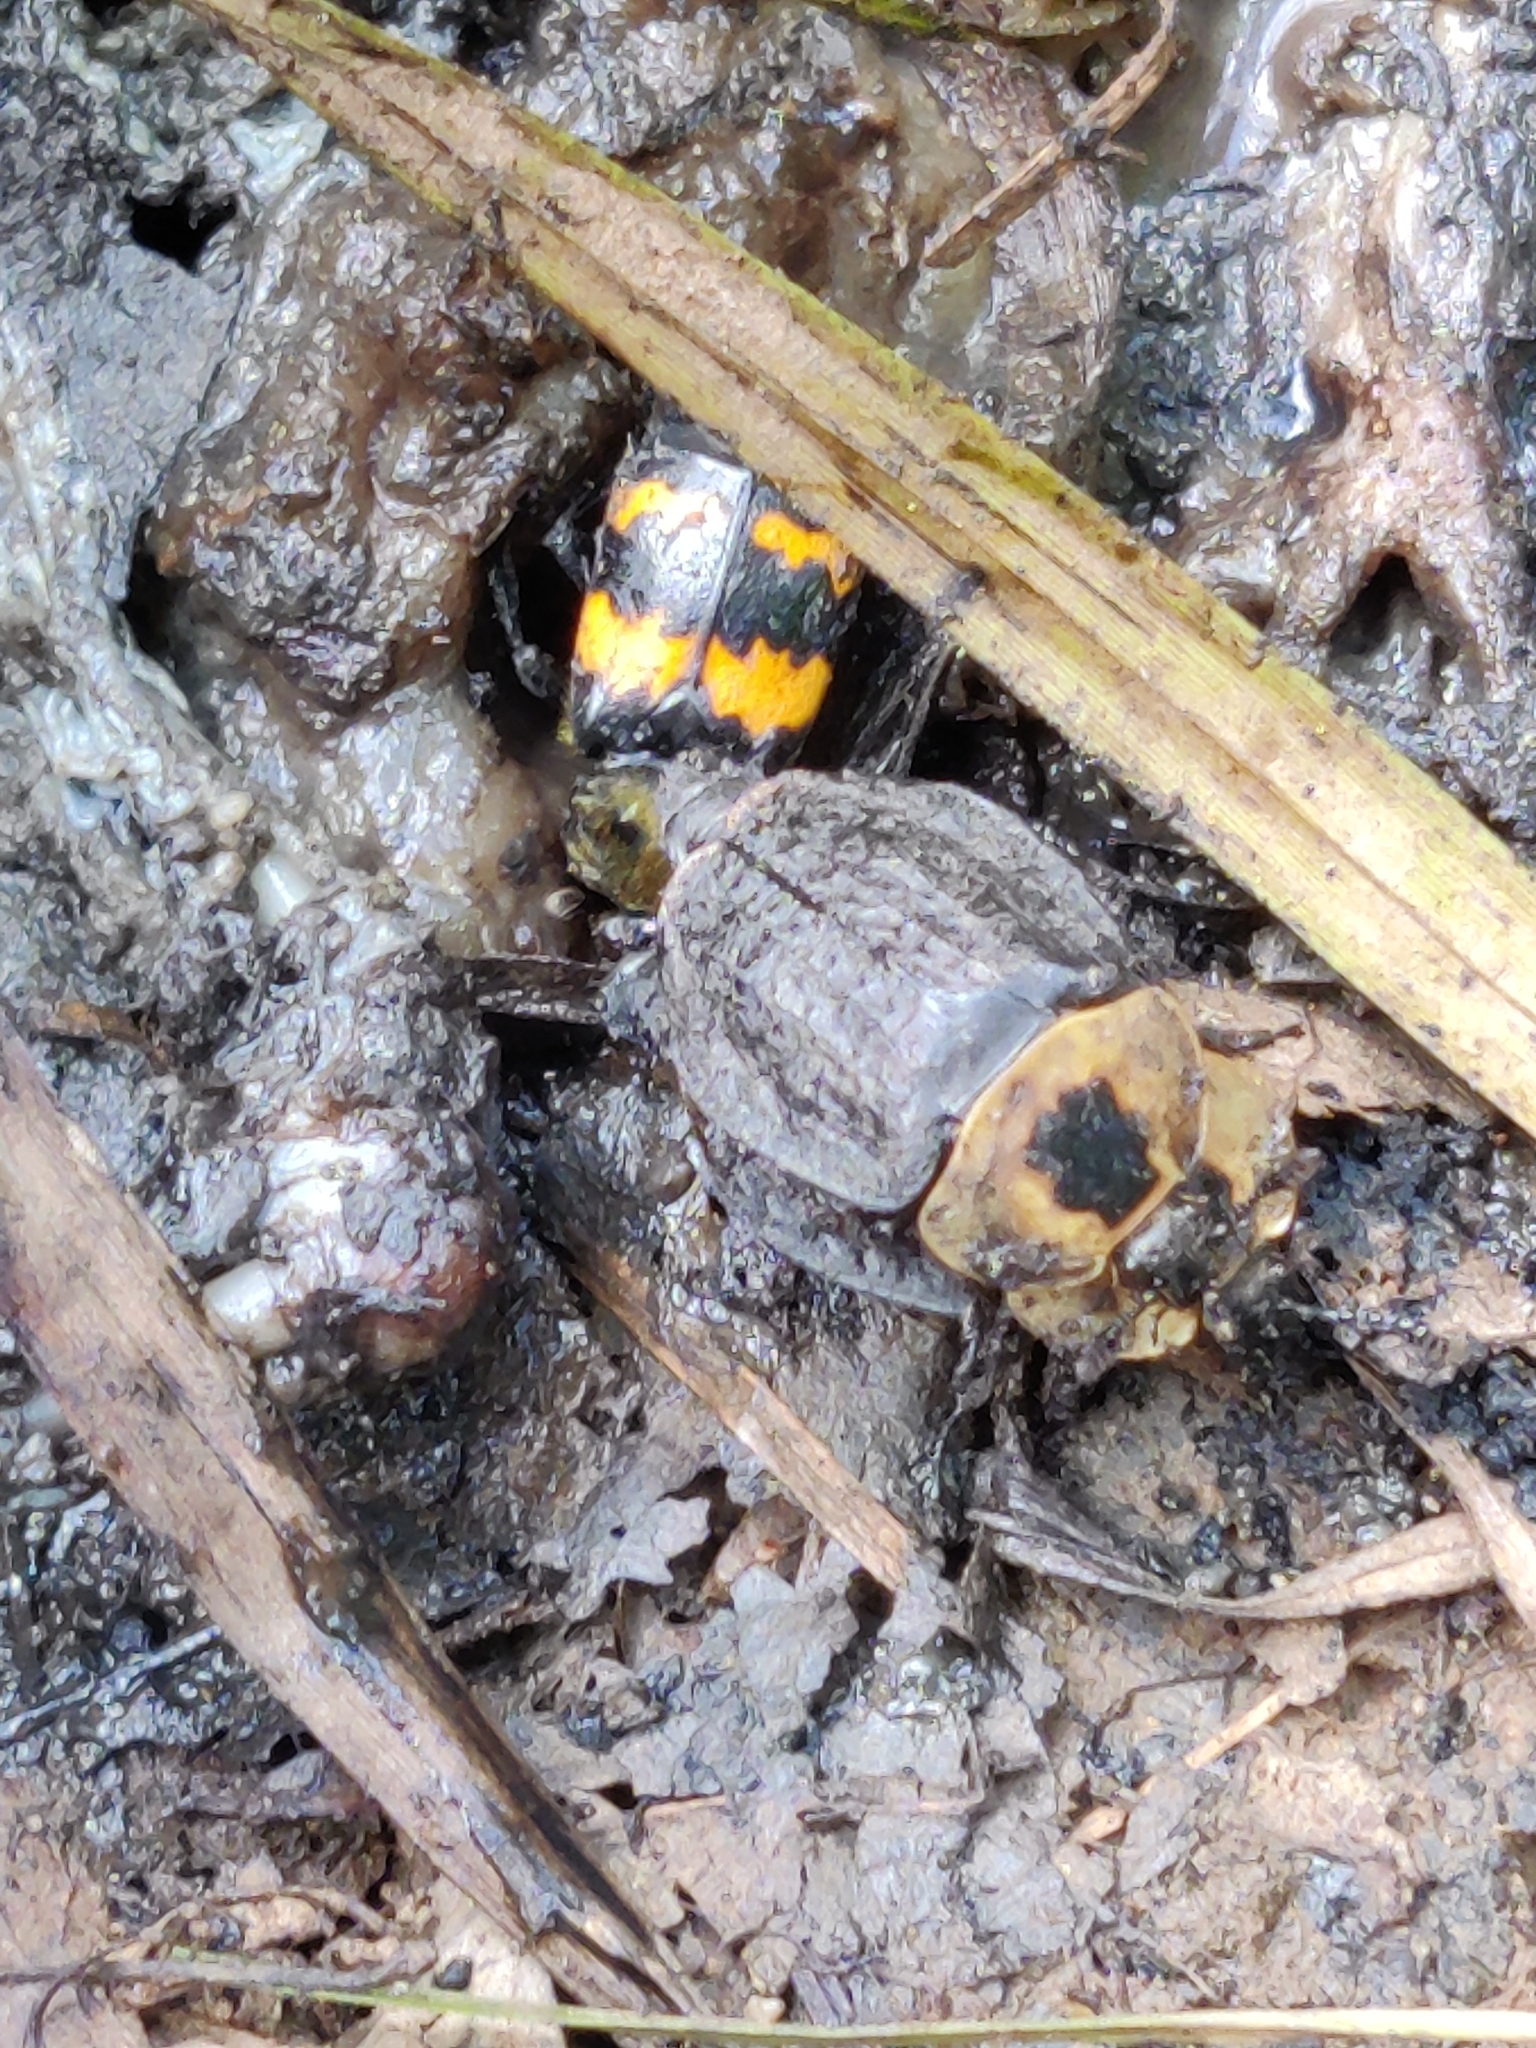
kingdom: Animalia
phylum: Arthropoda
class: Insecta
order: Coleoptera
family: Staphylinidae
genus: Necrophila
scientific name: Necrophila americana
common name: American carrion beetle
